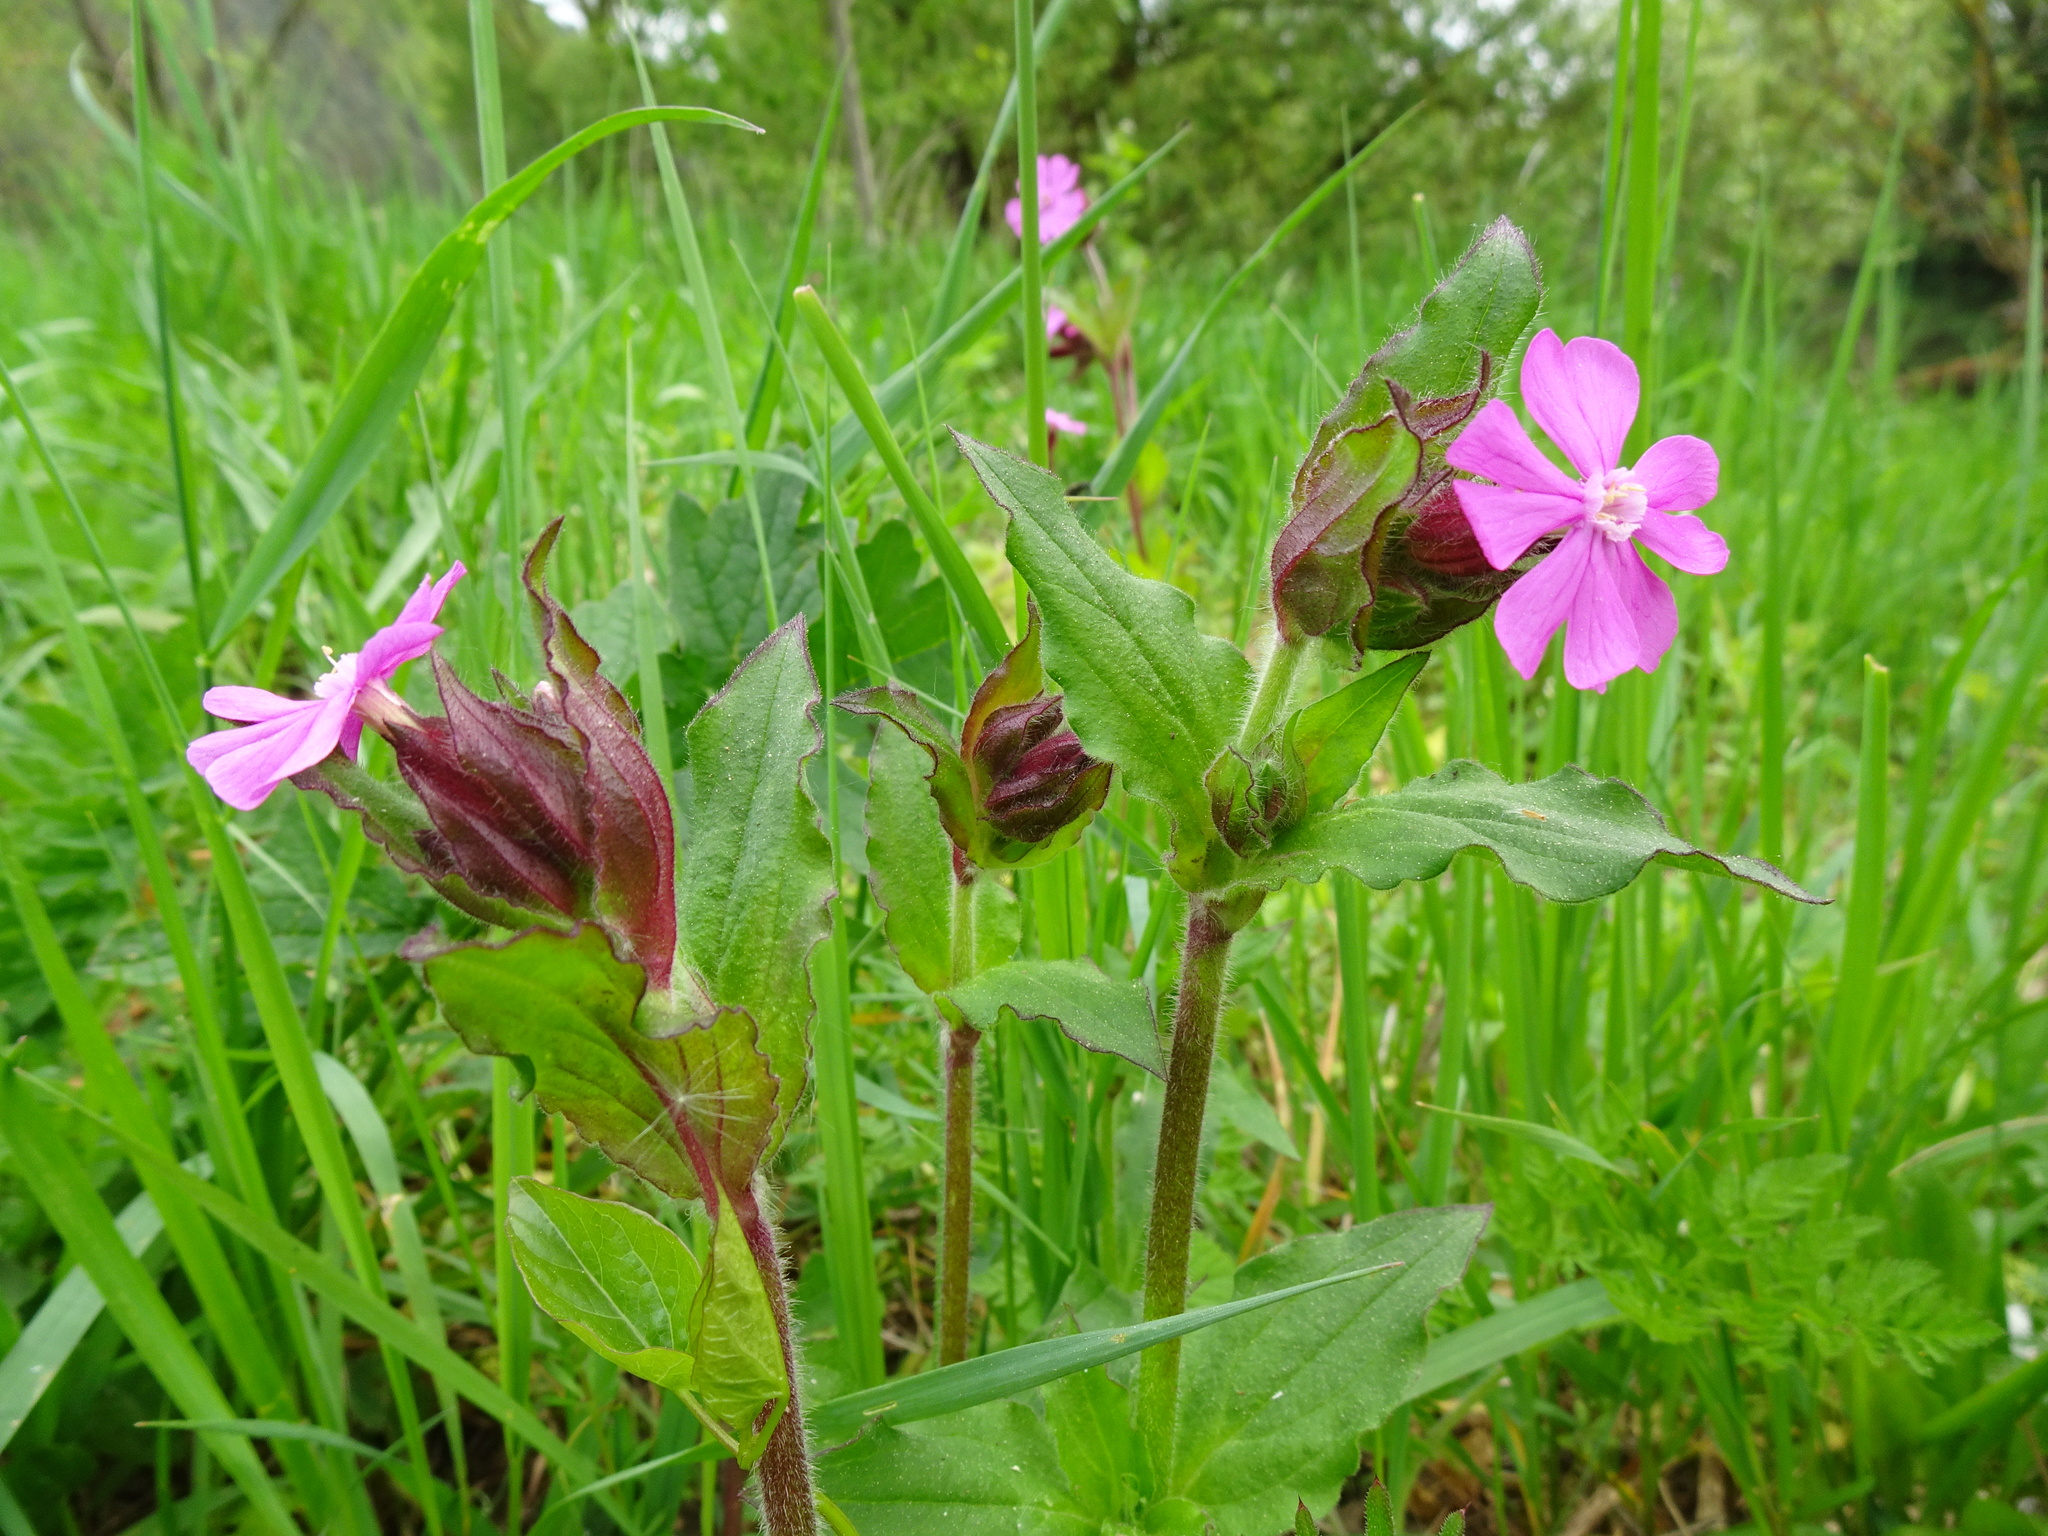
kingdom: Plantae
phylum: Tracheophyta
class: Magnoliopsida
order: Caryophyllales
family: Caryophyllaceae
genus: Silene
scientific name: Silene dioica
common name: Red campion
